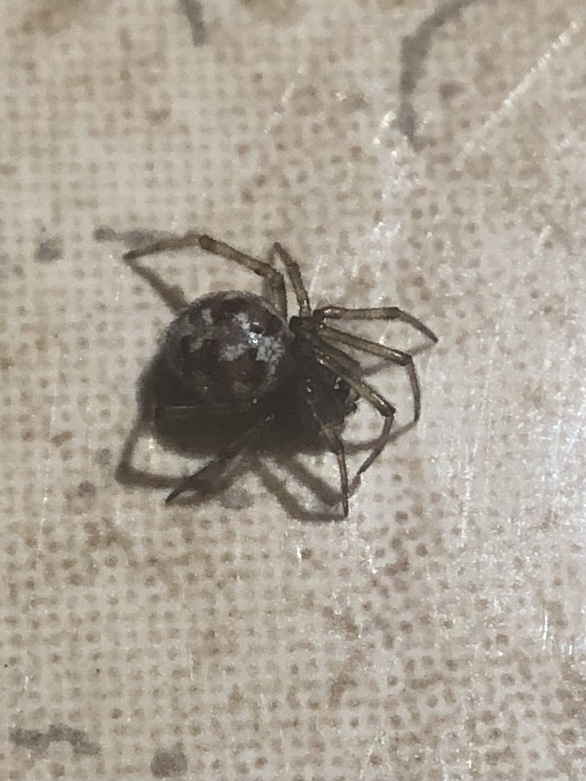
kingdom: Animalia
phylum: Arthropoda
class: Arachnida
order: Araneae
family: Theridiidae
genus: Steatoda
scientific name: Steatoda triangulosa
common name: Triangulate bud spider
